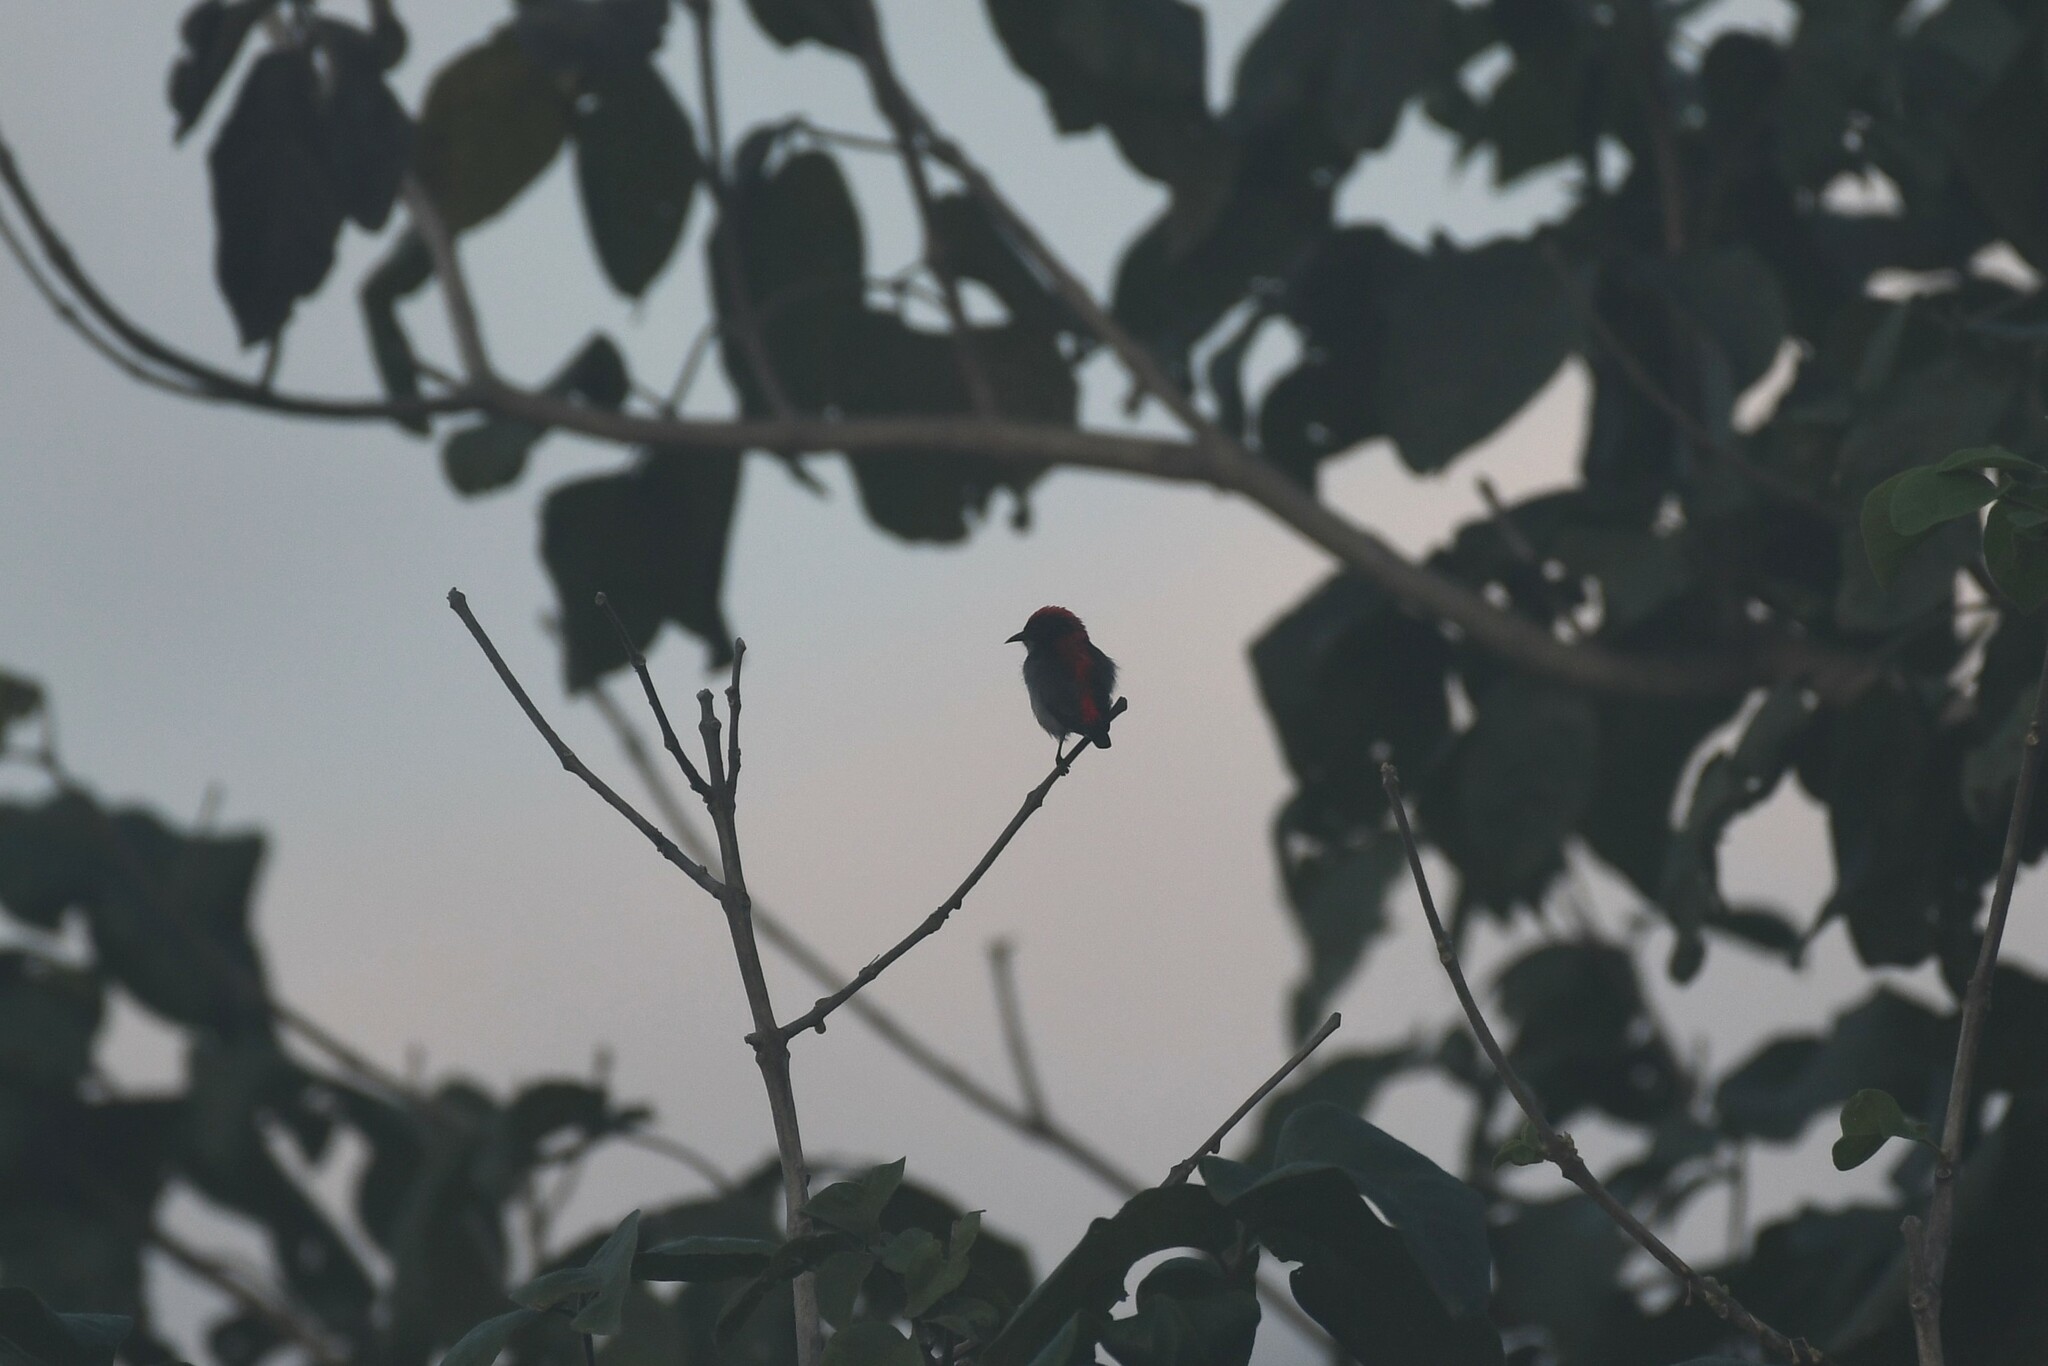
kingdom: Animalia
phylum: Chordata
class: Aves
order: Passeriformes
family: Dicaeidae
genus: Dicaeum
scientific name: Dicaeum cruentatum
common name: Scarlet-backed flowerpecker
